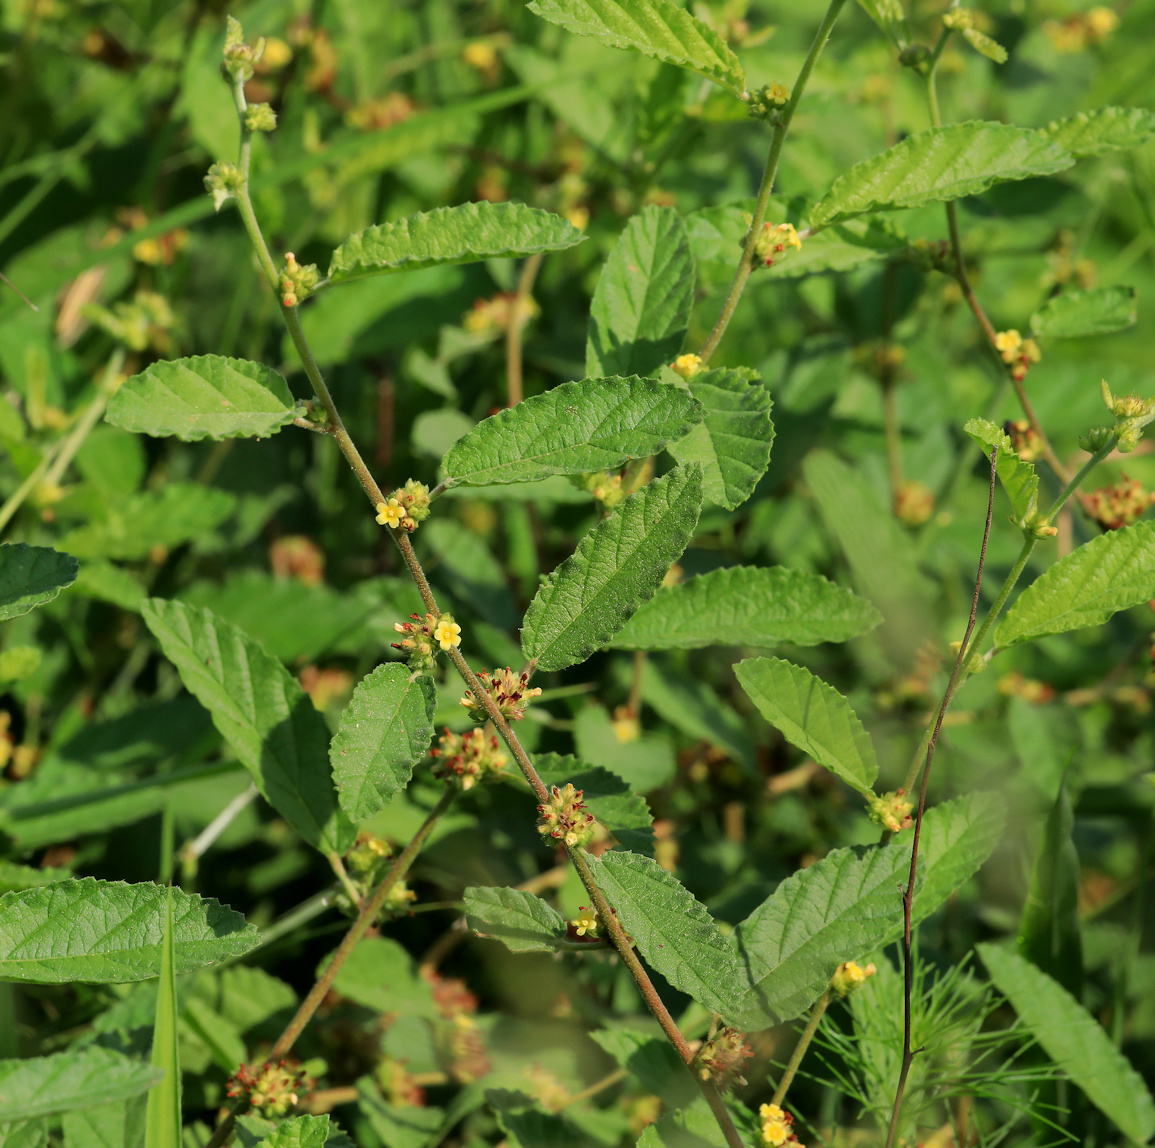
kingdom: Plantae
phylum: Tracheophyta
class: Magnoliopsida
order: Malvales
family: Malvaceae
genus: Waltheria
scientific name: Waltheria indica
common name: Leather-coat
